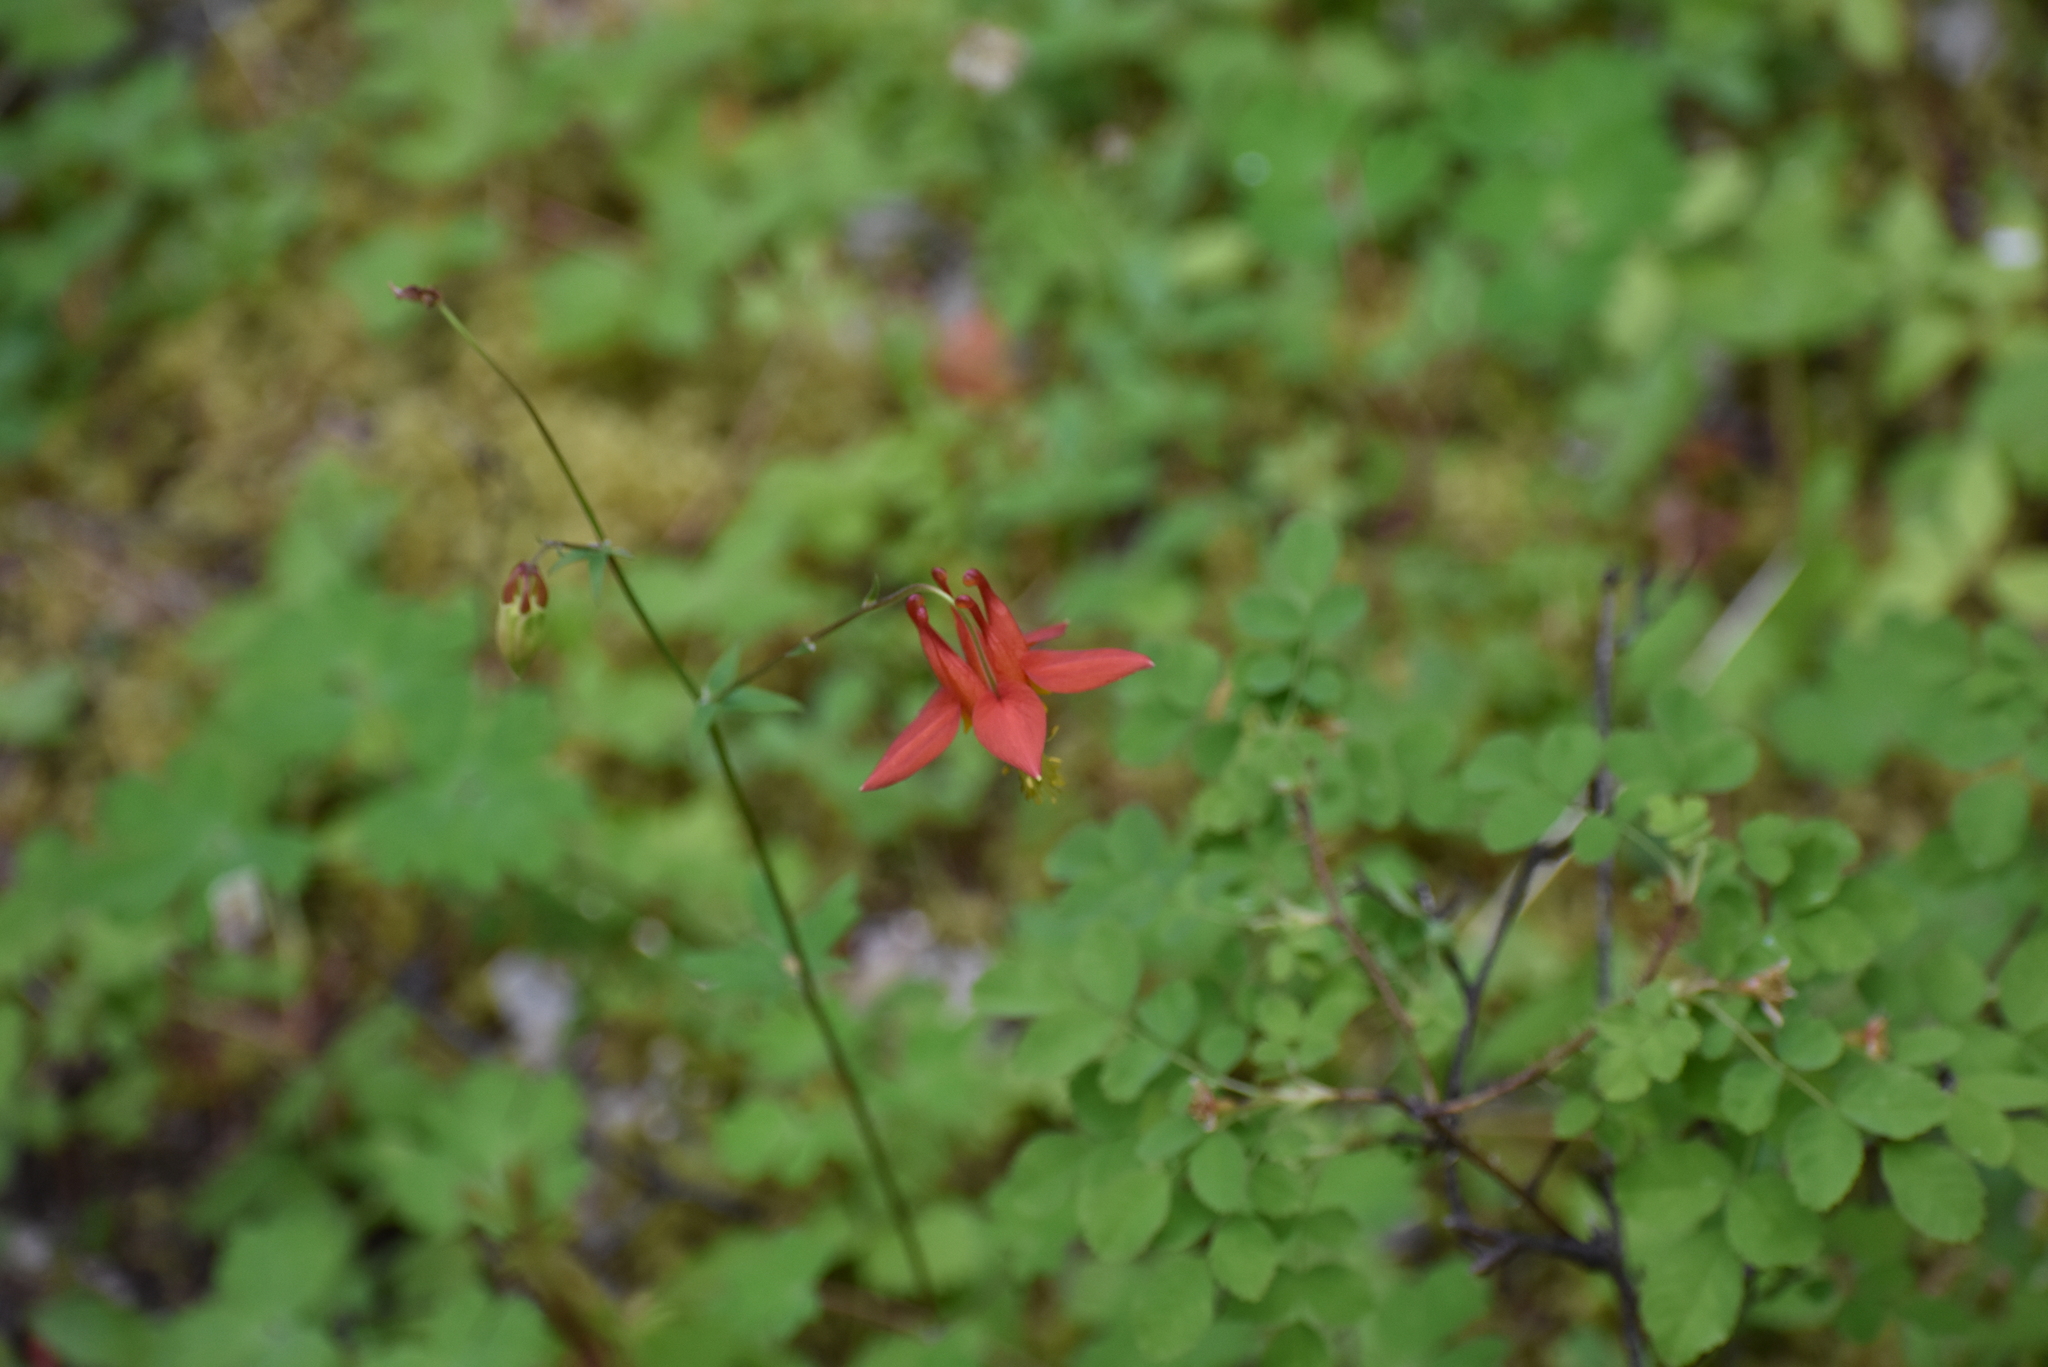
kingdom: Plantae
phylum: Tracheophyta
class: Magnoliopsida
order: Ranunculales
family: Ranunculaceae
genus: Aquilegia
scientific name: Aquilegia formosa
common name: Sitka columbine
